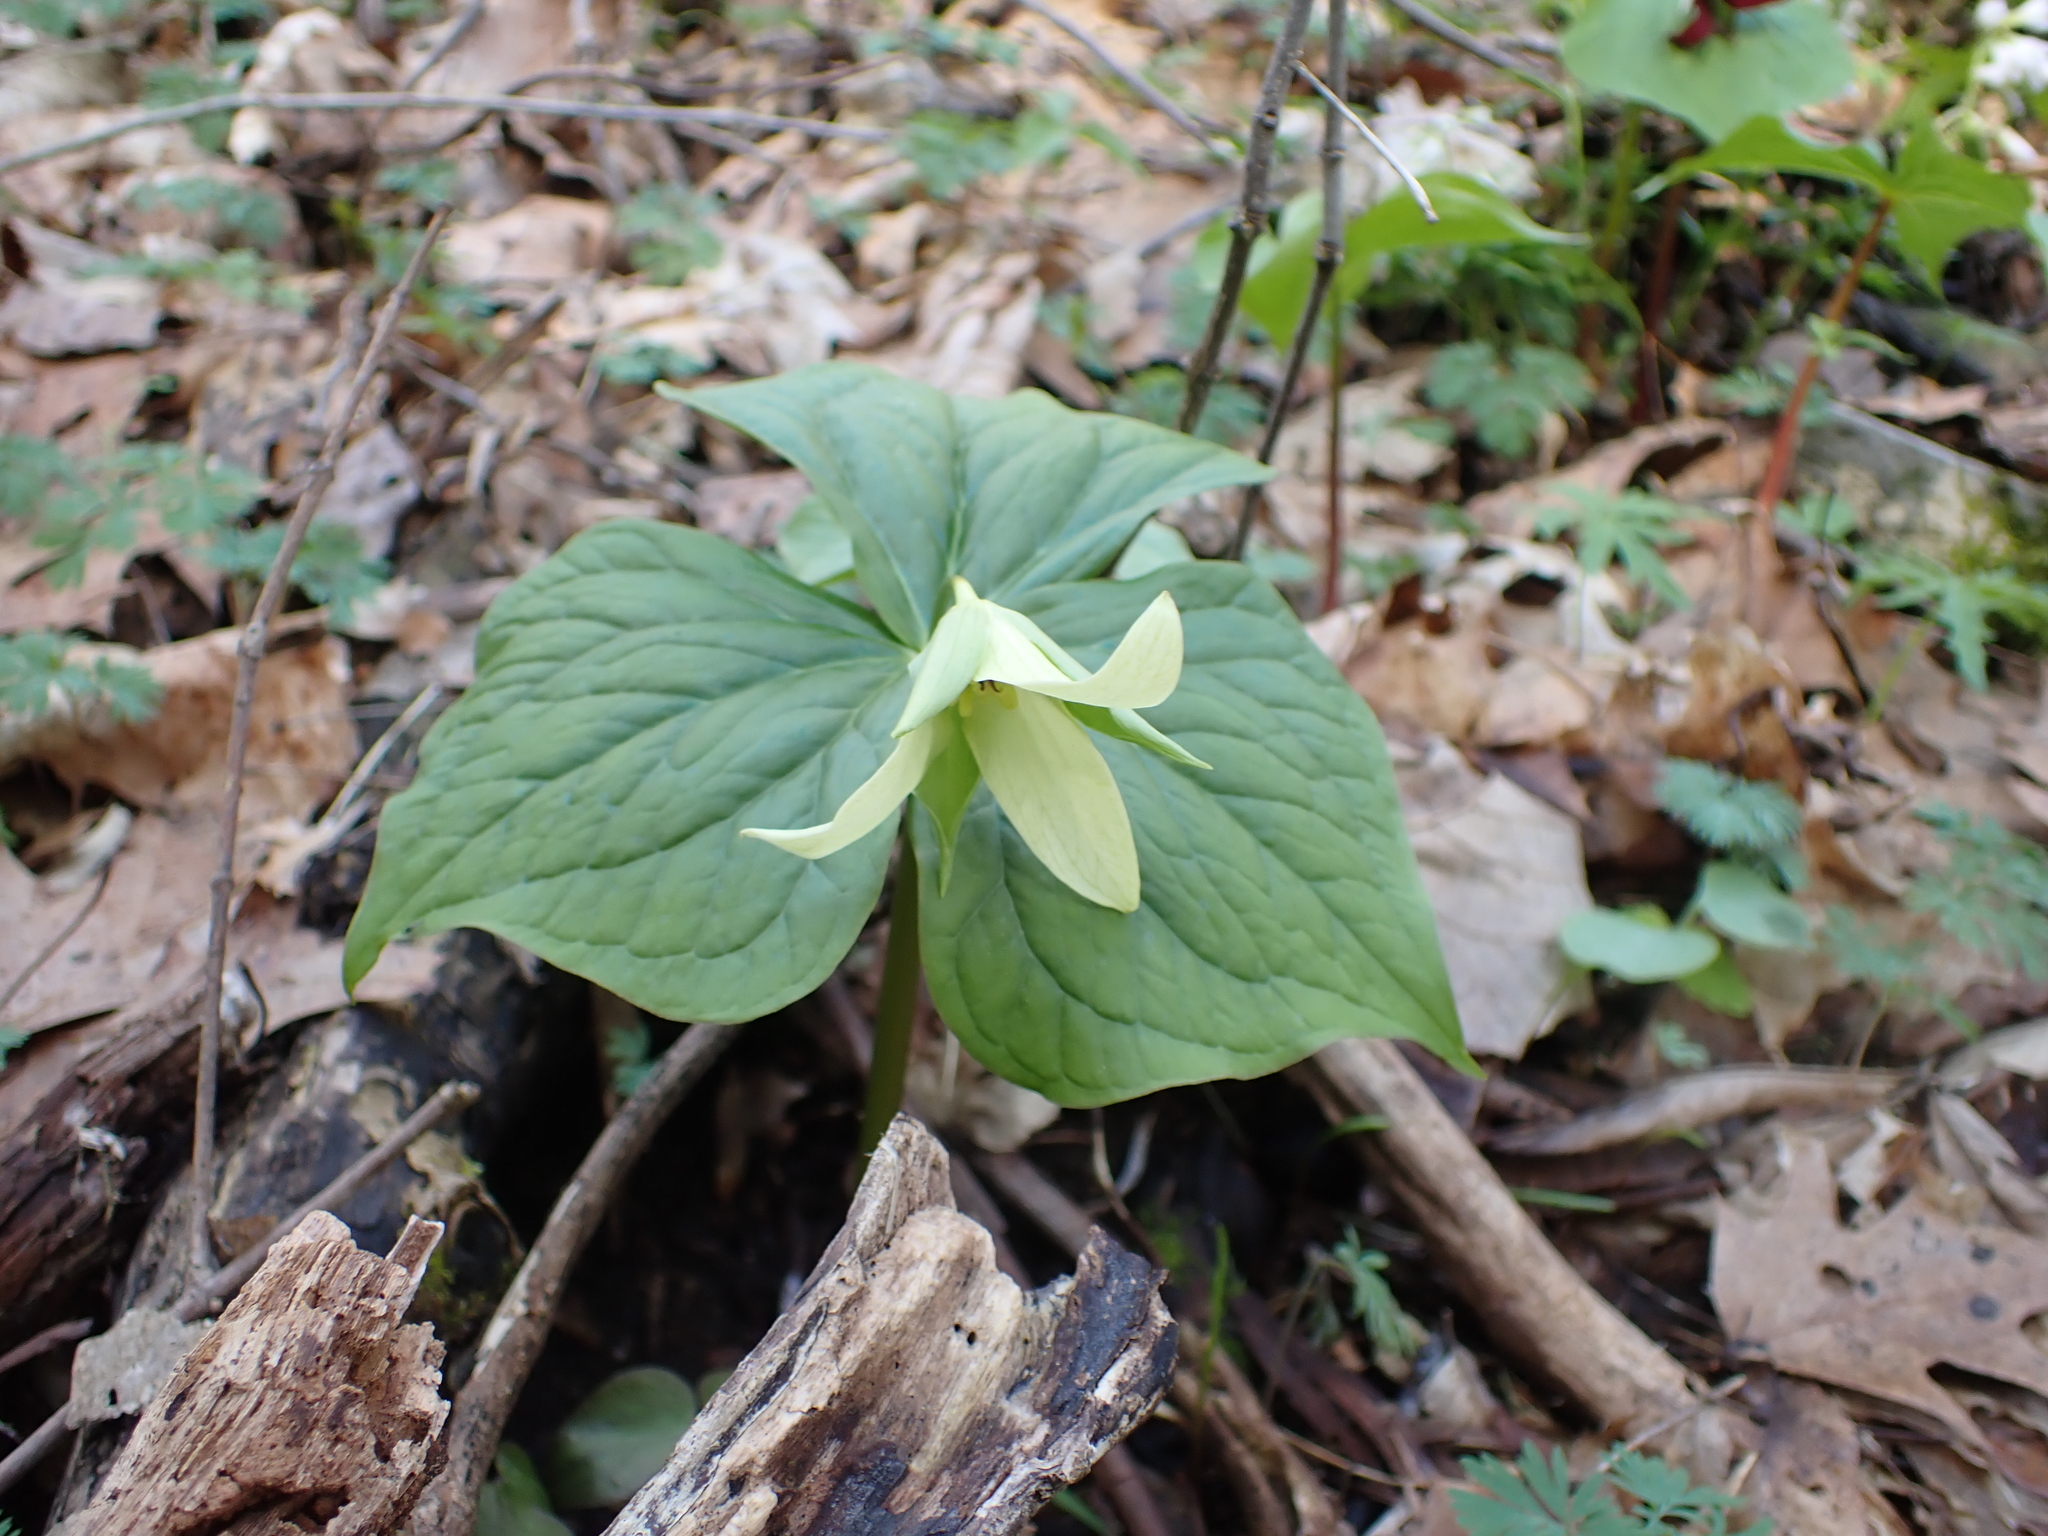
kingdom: Plantae
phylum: Tracheophyta
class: Liliopsida
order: Liliales
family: Melanthiaceae
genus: Trillium
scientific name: Trillium erectum
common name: Purple trillium
